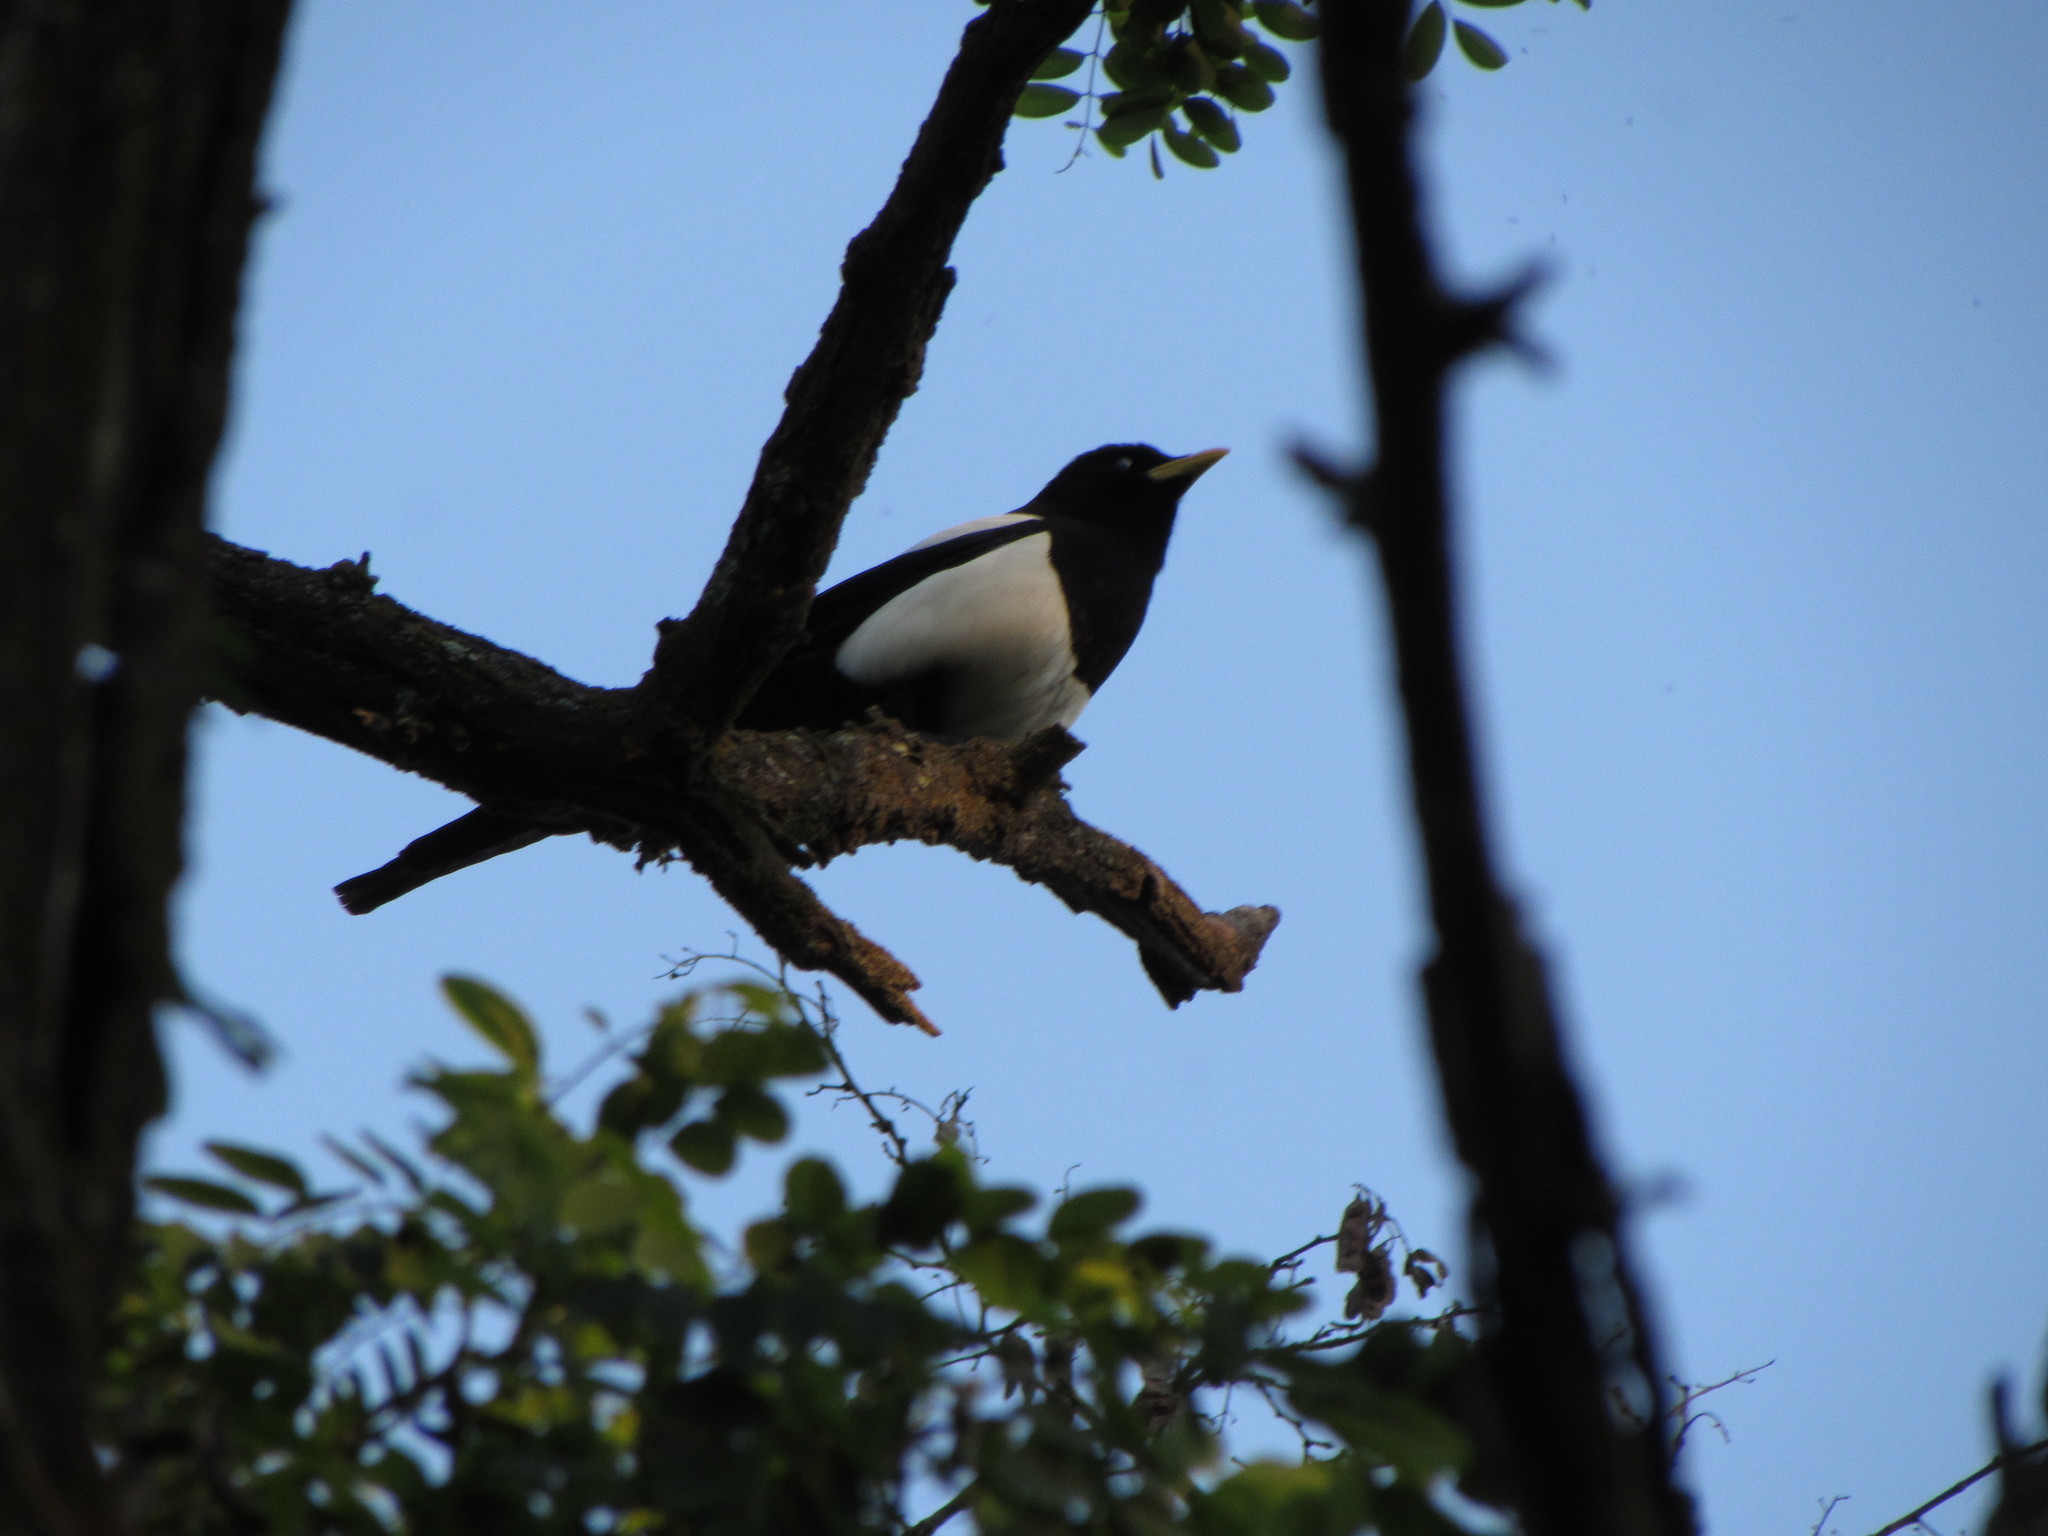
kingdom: Animalia
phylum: Chordata
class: Aves
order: Passeriformes
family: Corvidae
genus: Pica
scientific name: Pica nuttalli
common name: Yellow-billed magpie
